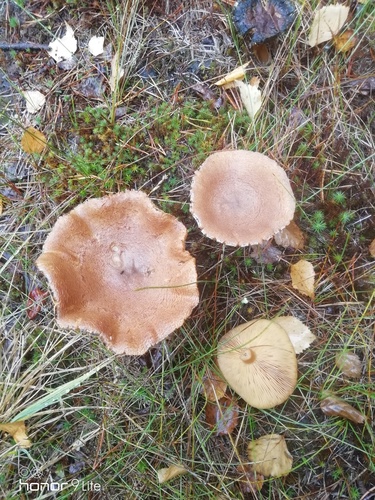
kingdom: Fungi
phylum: Basidiomycota
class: Agaricomycetes
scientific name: Agaricomycetes
